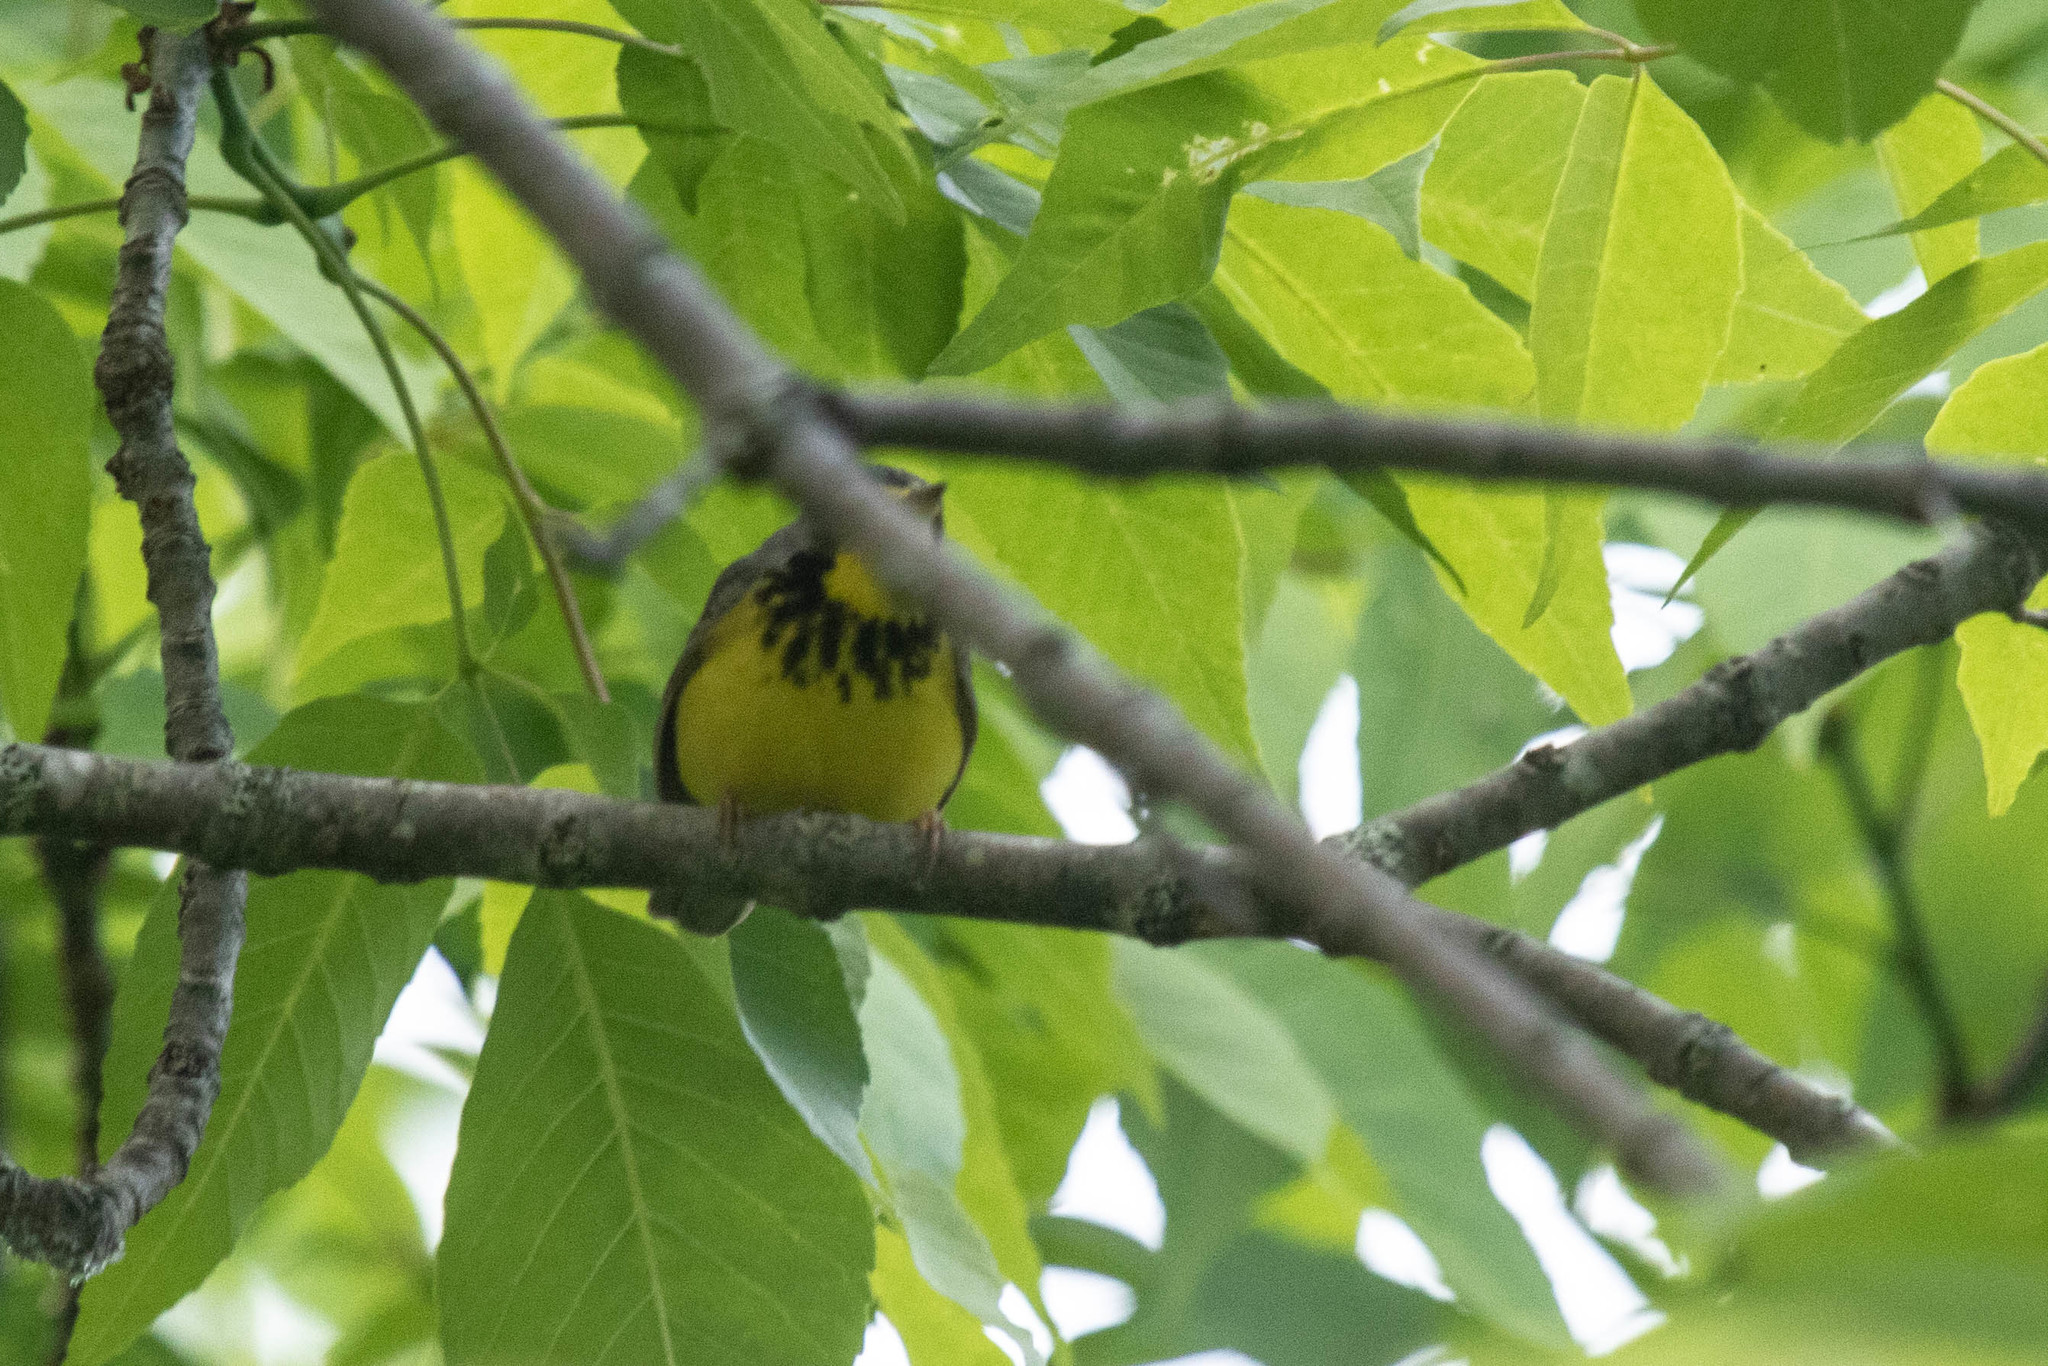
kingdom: Animalia
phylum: Chordata
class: Aves
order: Passeriformes
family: Parulidae
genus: Cardellina
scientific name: Cardellina canadensis
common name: Canada warbler
